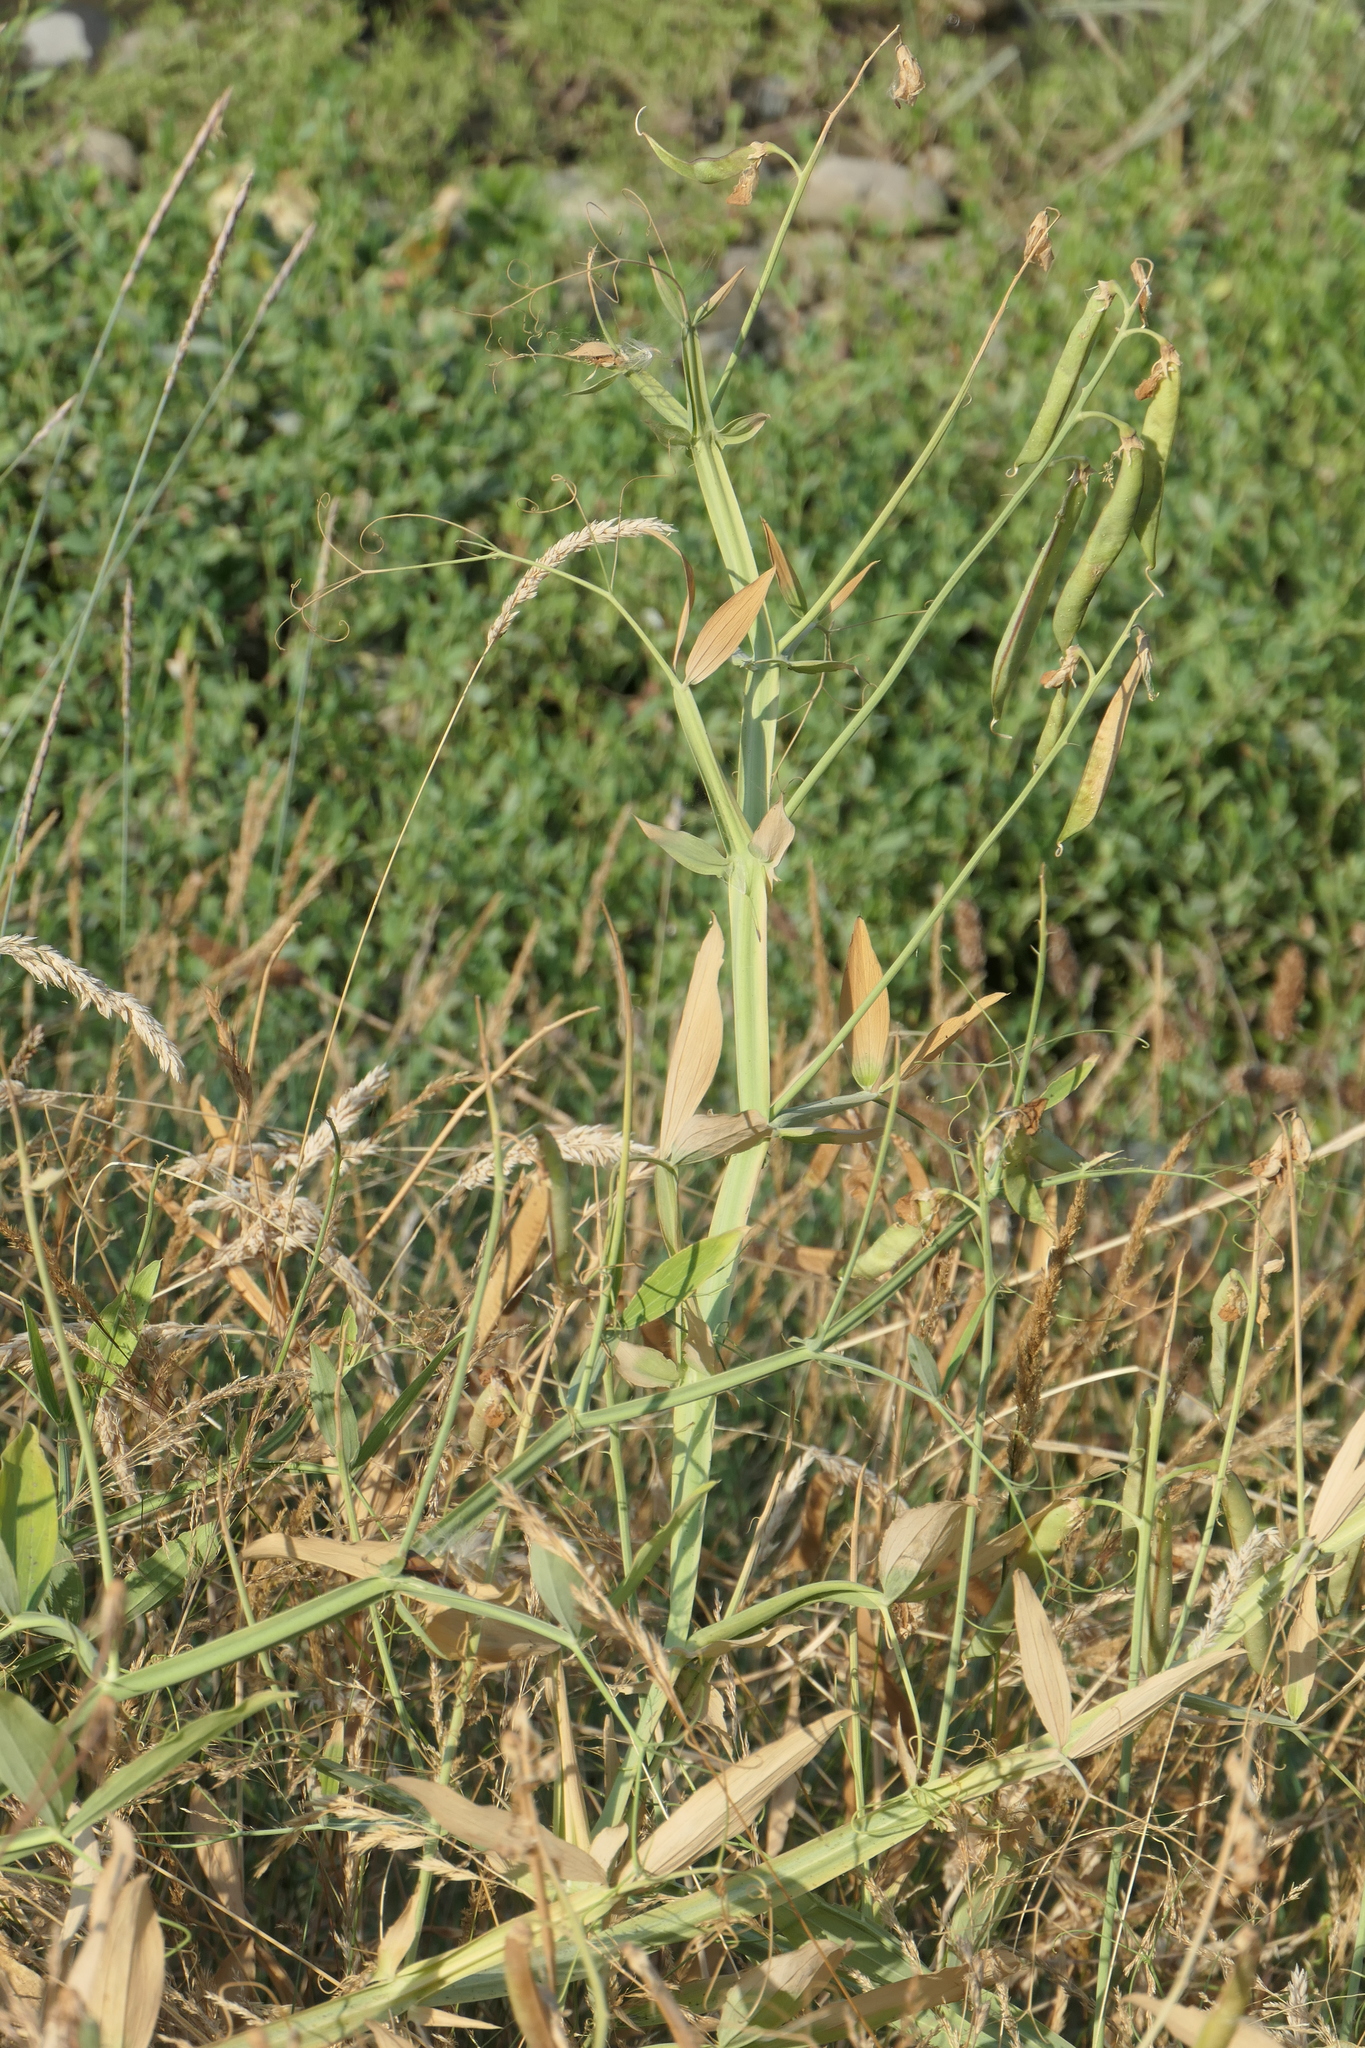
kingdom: Plantae
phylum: Tracheophyta
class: Magnoliopsida
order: Fabales
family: Fabaceae
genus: Lathyrus
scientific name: Lathyrus latifolius
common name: Perennial pea
